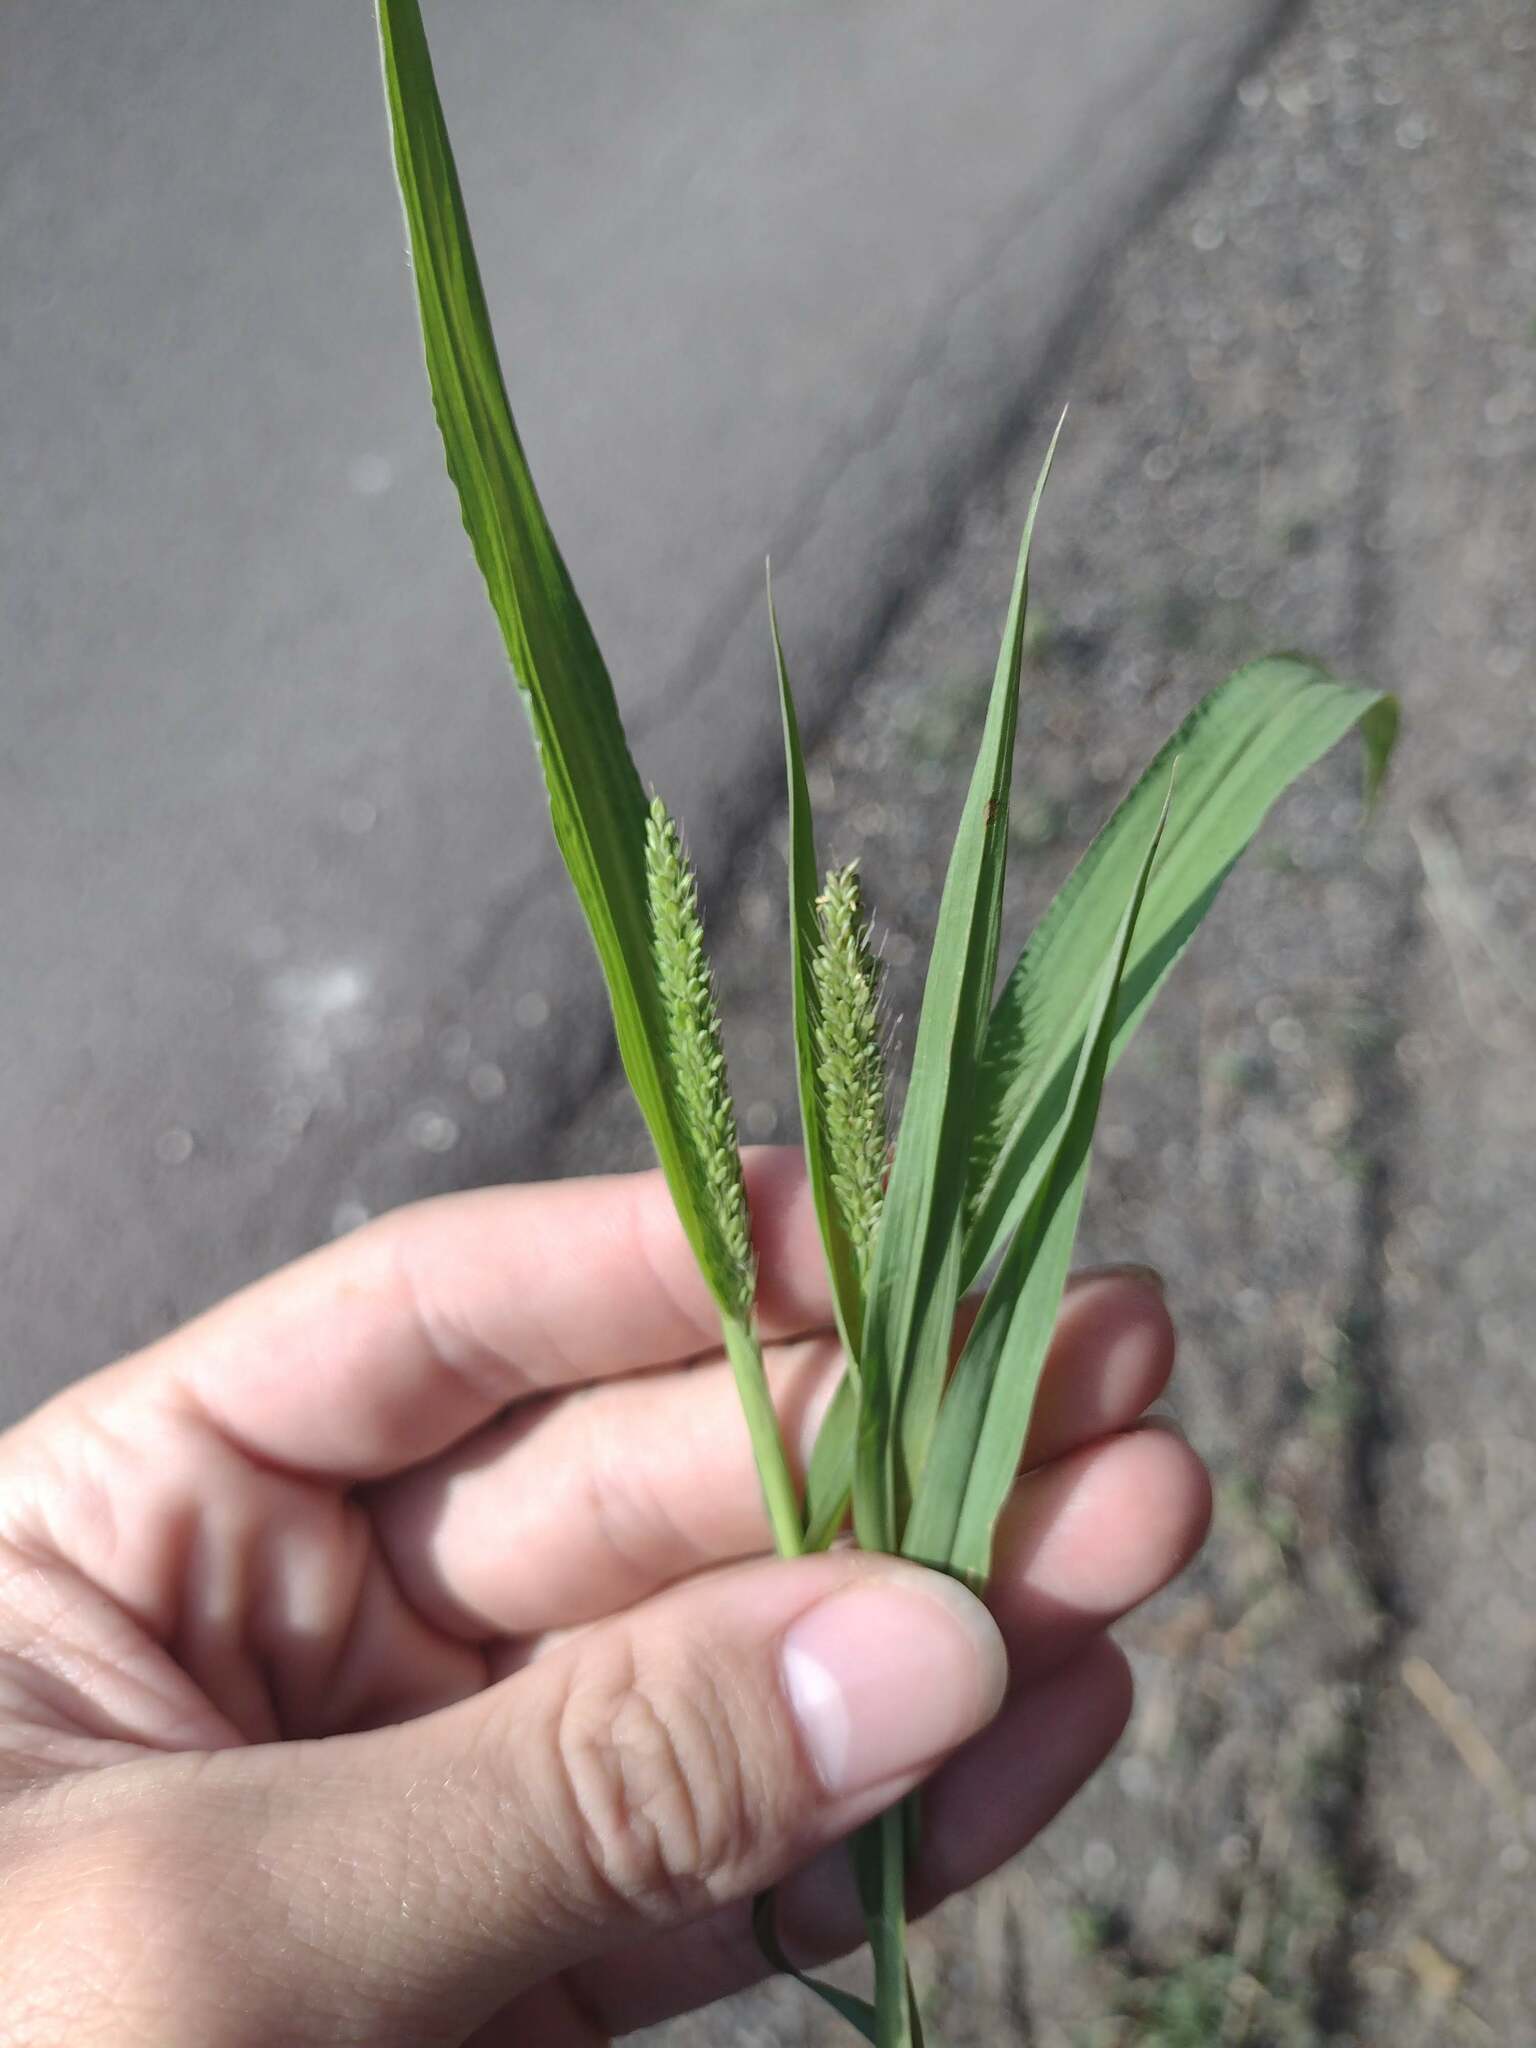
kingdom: Plantae
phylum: Tracheophyta
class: Liliopsida
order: Poales
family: Poaceae
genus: Setaria
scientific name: Setaria adhaerens
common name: Adherent bristle-grass
